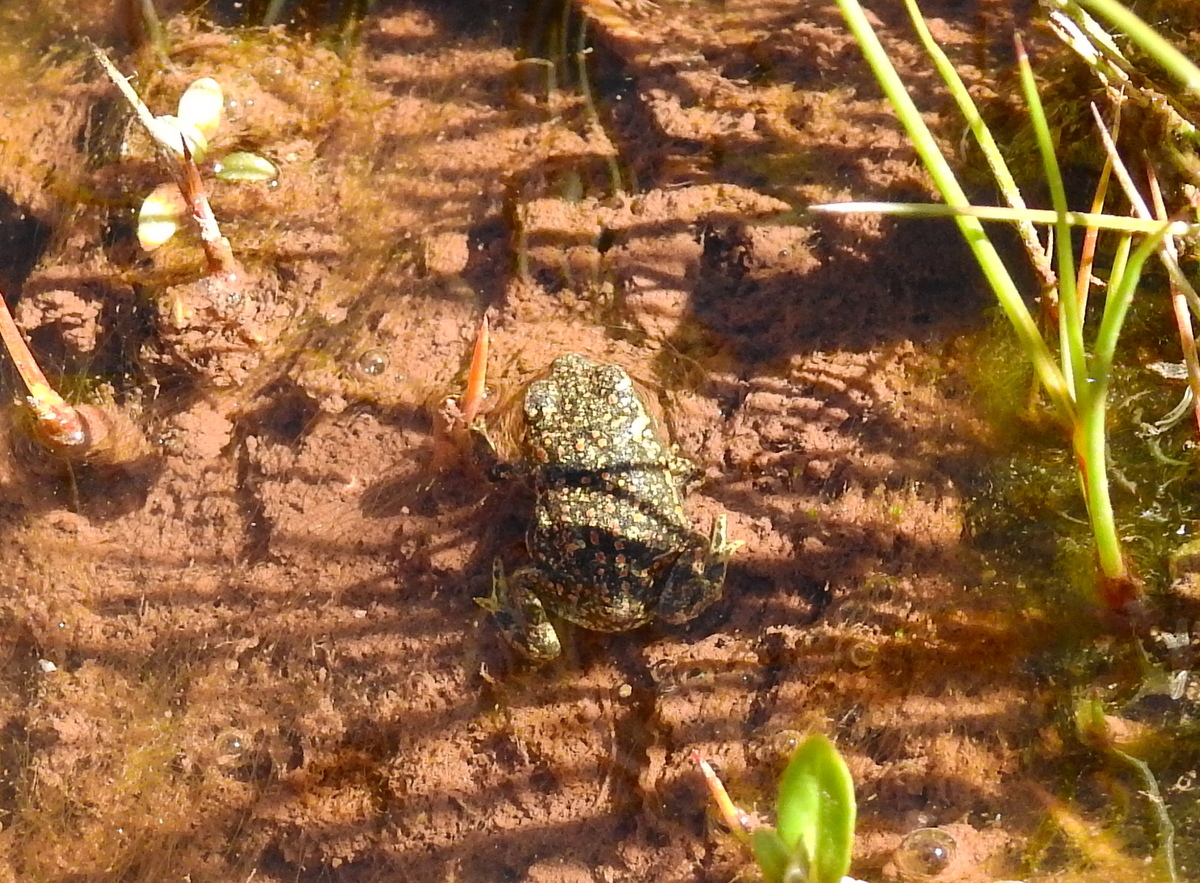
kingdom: Animalia
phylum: Chordata
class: Amphibia
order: Anura
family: Bufonidae
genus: Rhinella
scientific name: Rhinella spinulosa
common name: Warty toad
